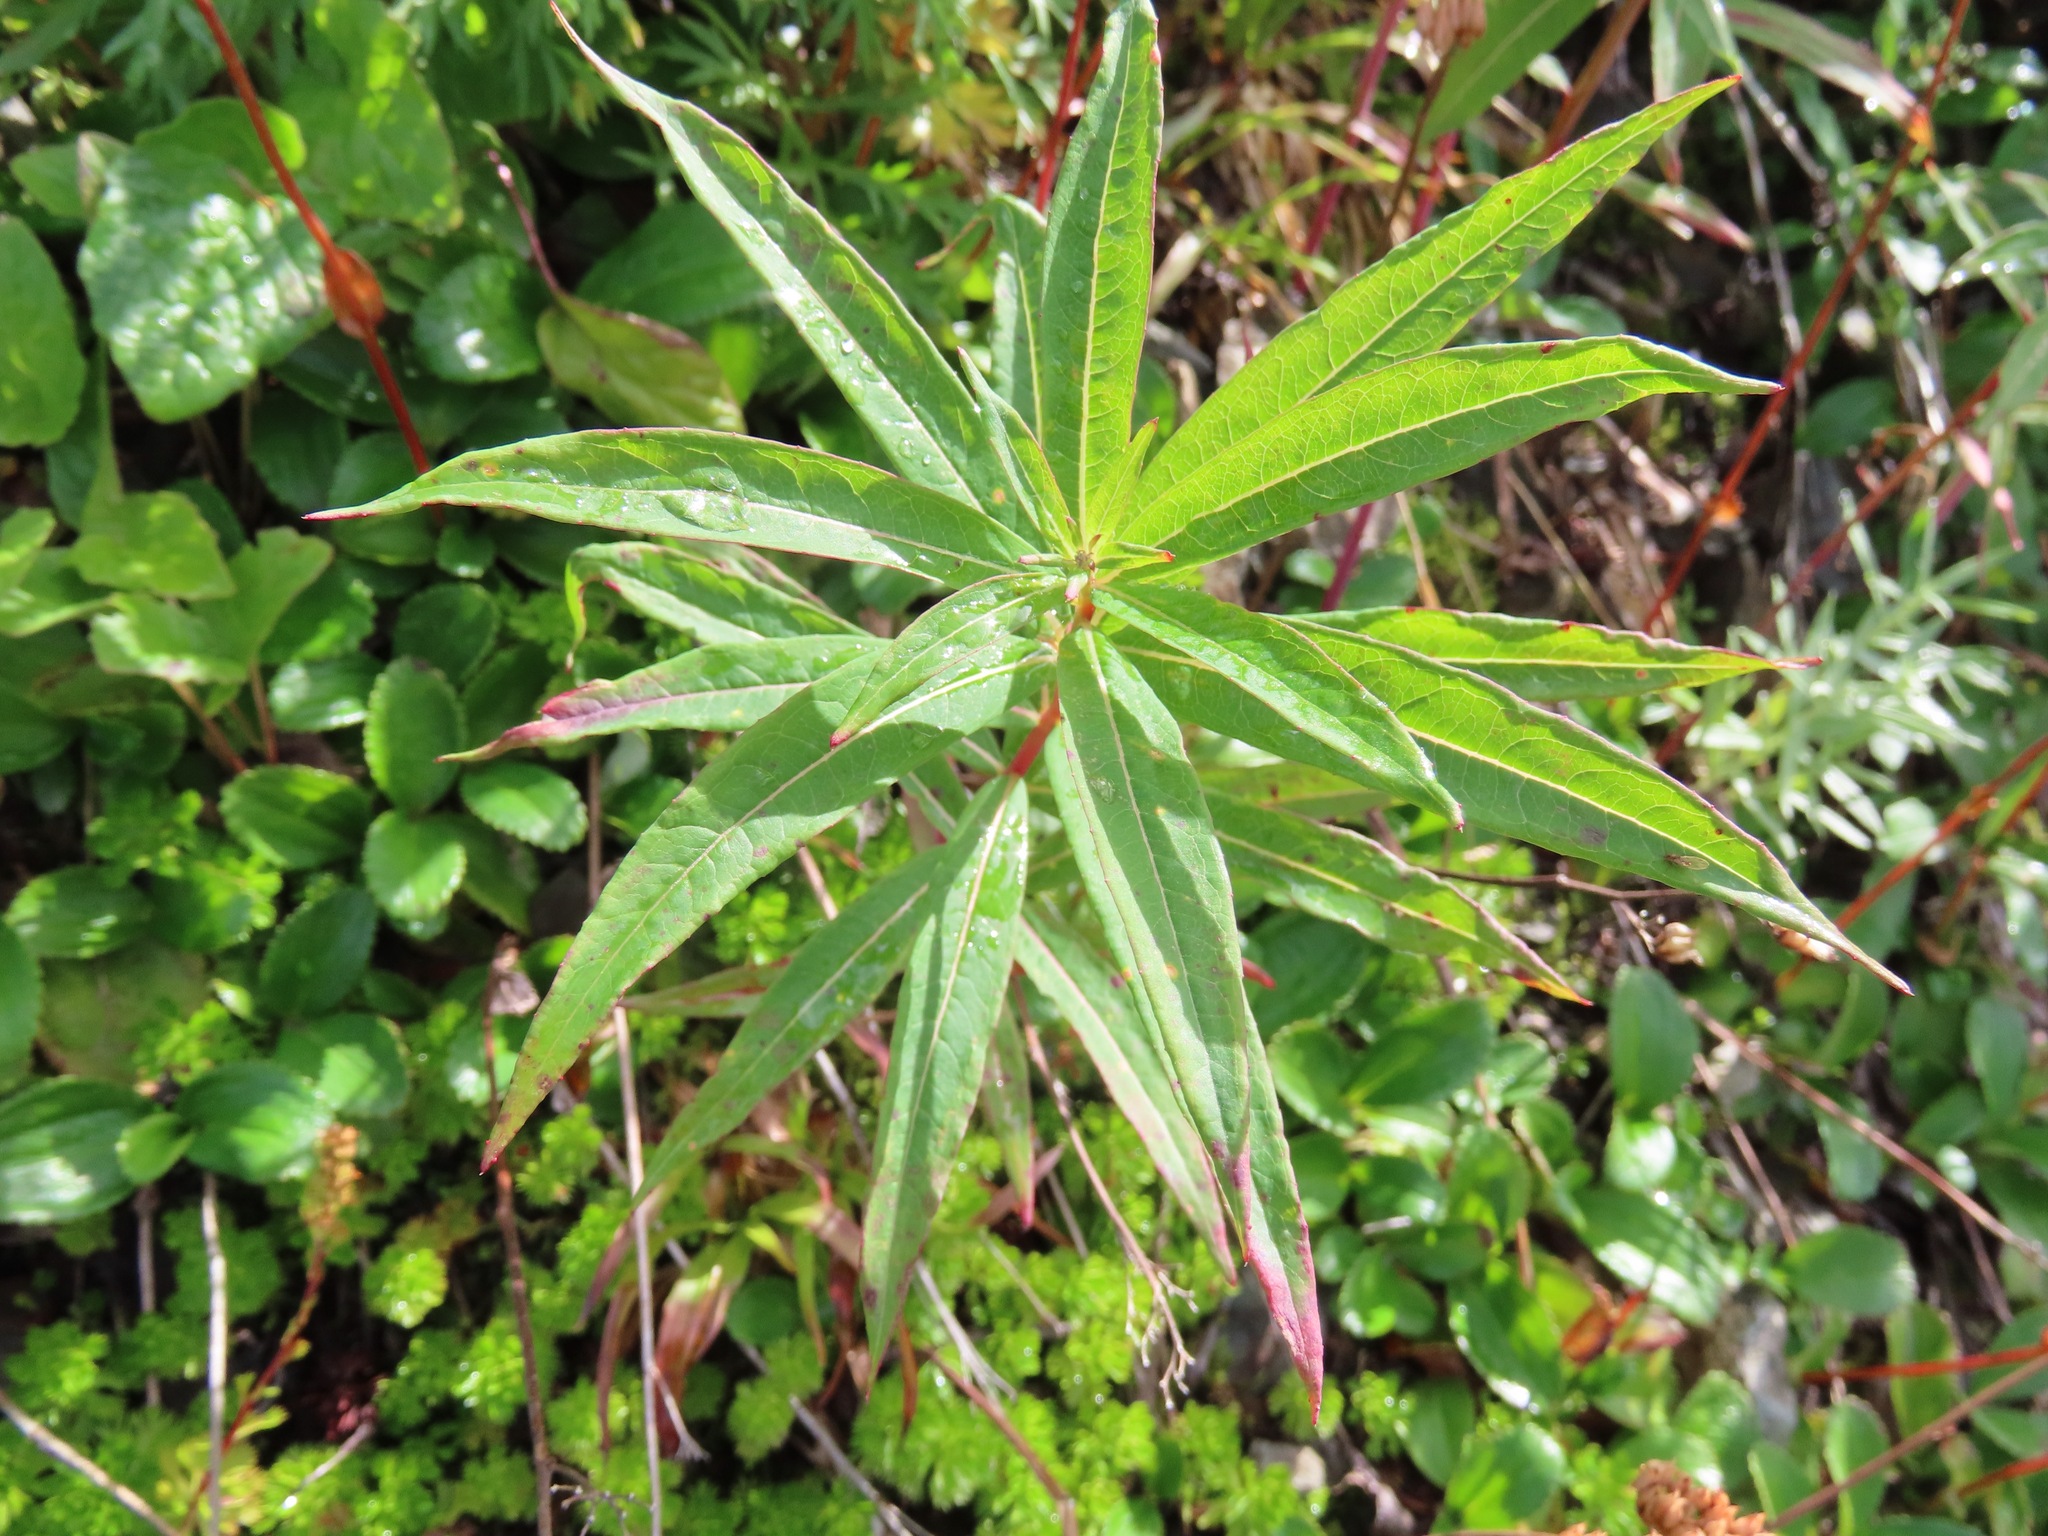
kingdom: Plantae
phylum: Tracheophyta
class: Magnoliopsida
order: Myrtales
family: Onagraceae
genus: Chamaenerion
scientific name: Chamaenerion angustifolium
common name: Fireweed
